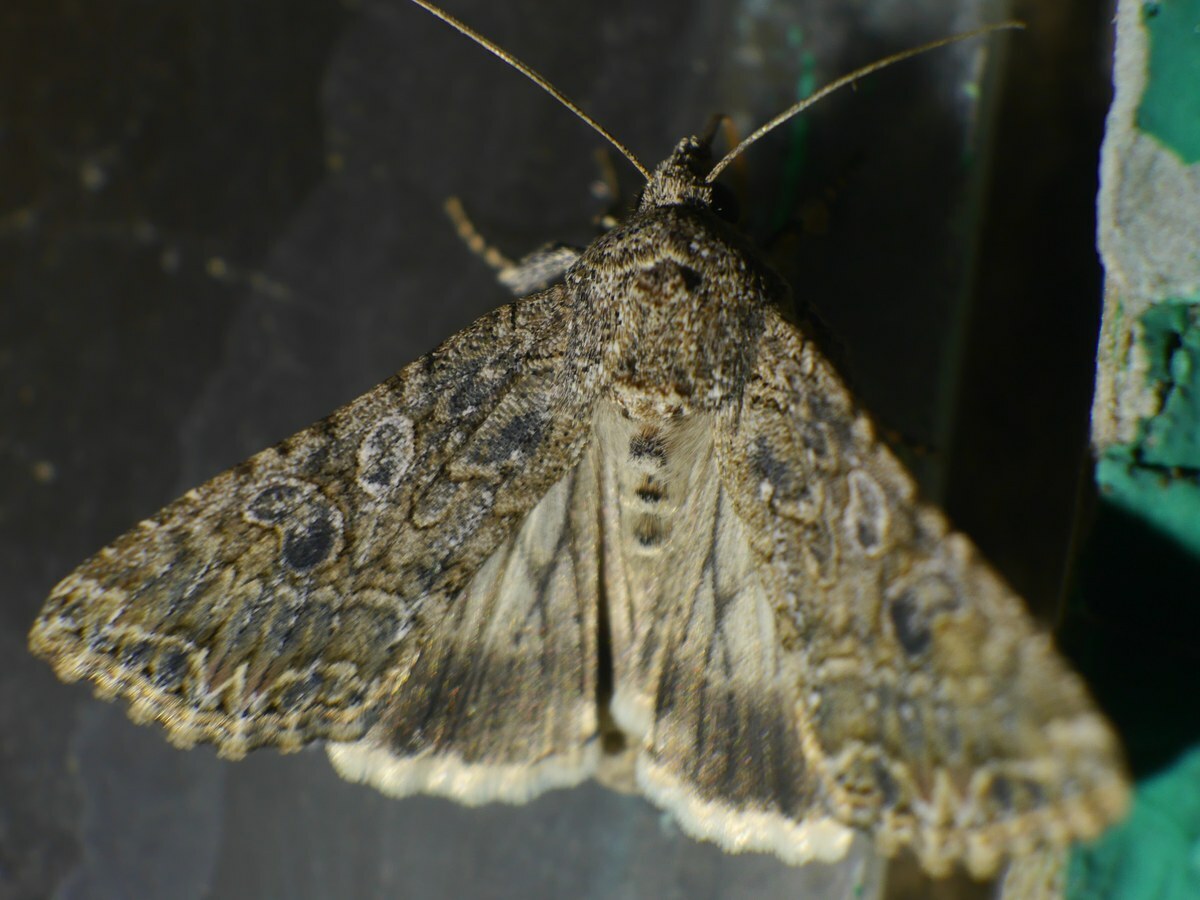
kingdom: Animalia
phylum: Arthropoda
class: Insecta
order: Lepidoptera
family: Noctuidae
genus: Anarta
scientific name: Anarta trifolii
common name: Clover cutworm moth
